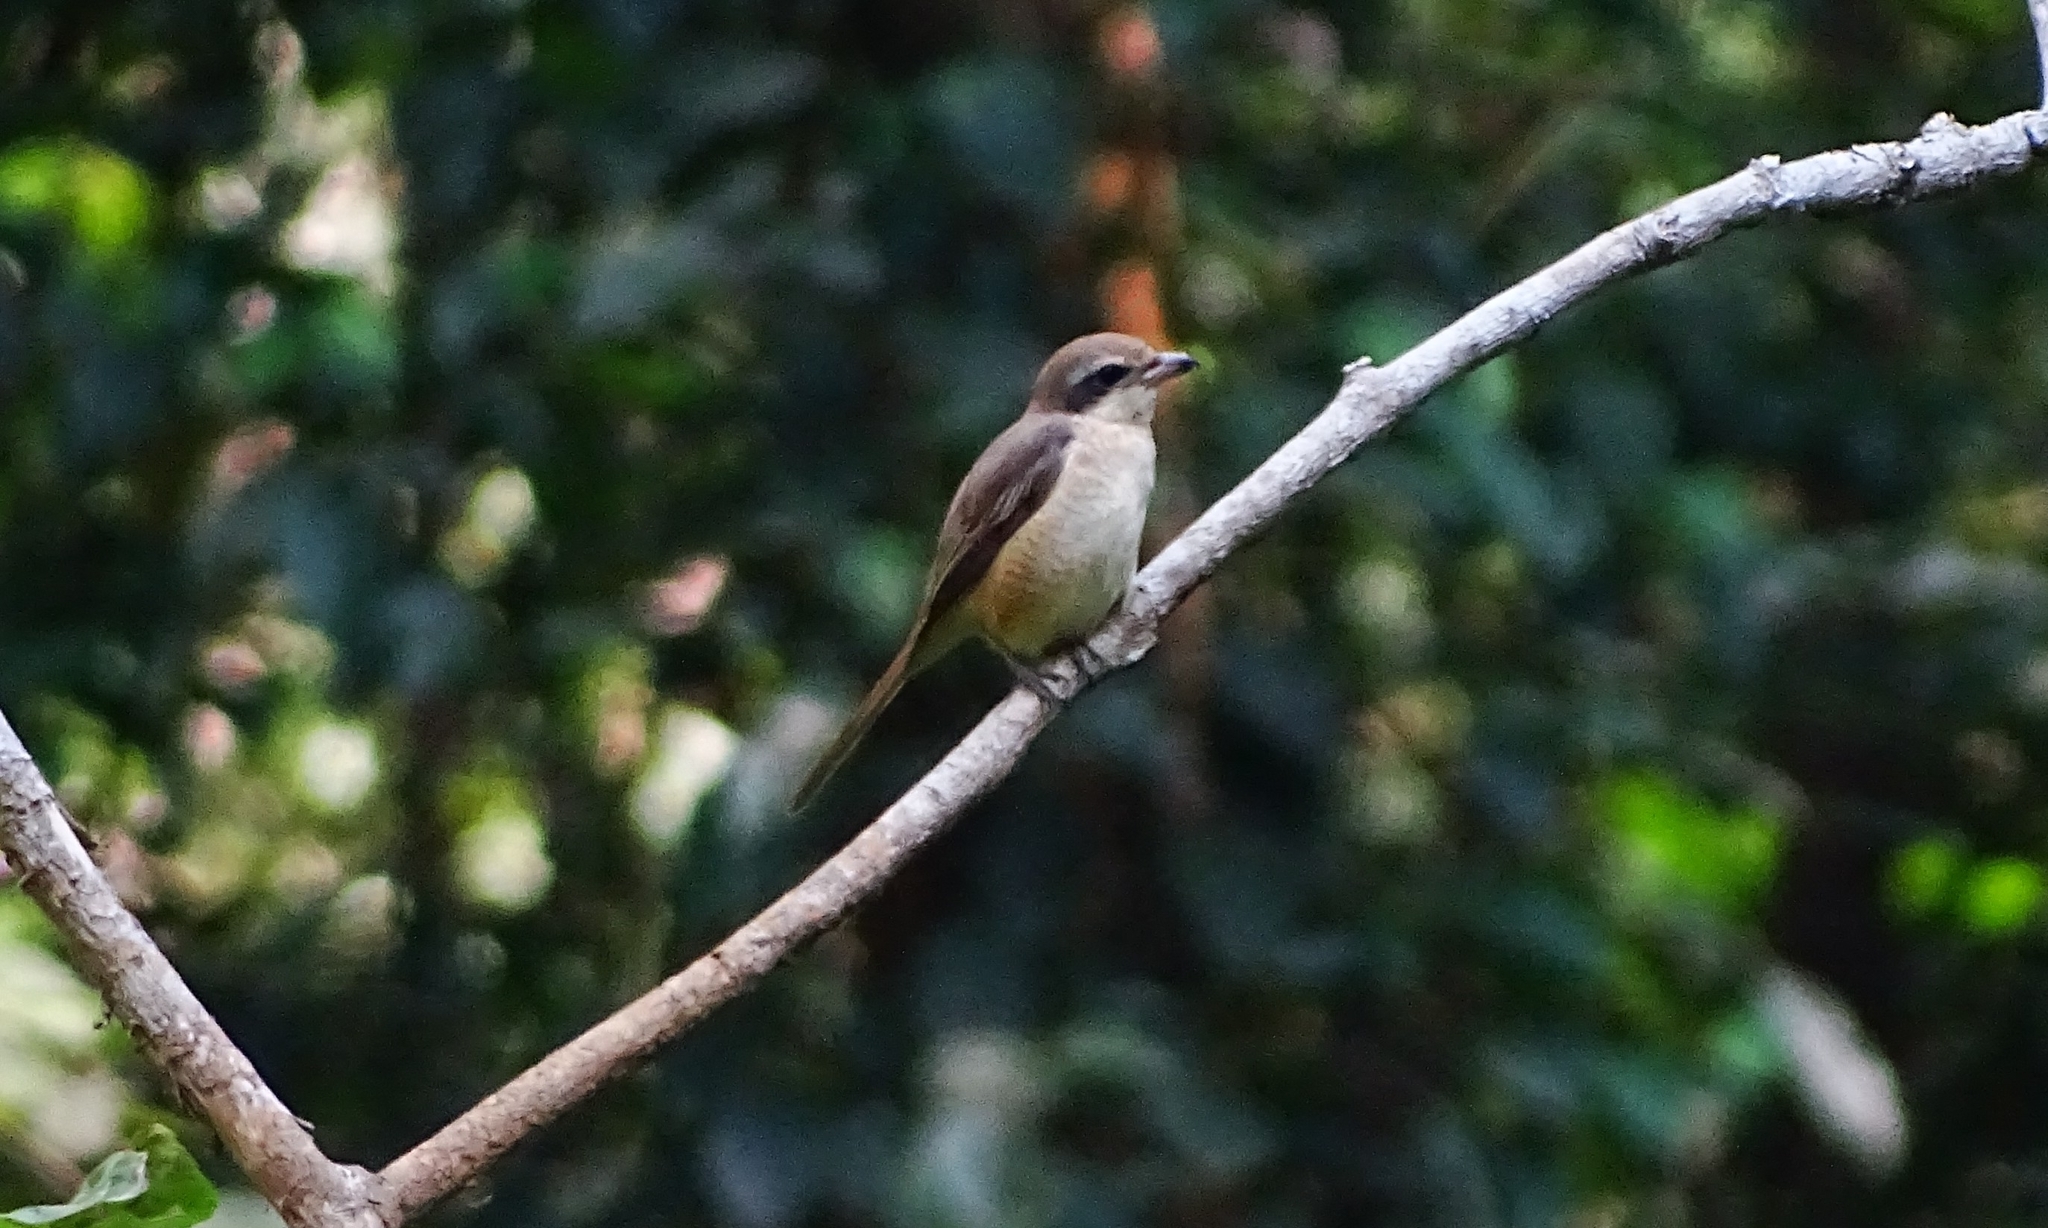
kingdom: Animalia
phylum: Chordata
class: Aves
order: Passeriformes
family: Laniidae
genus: Lanius
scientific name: Lanius cristatus
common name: Brown shrike
